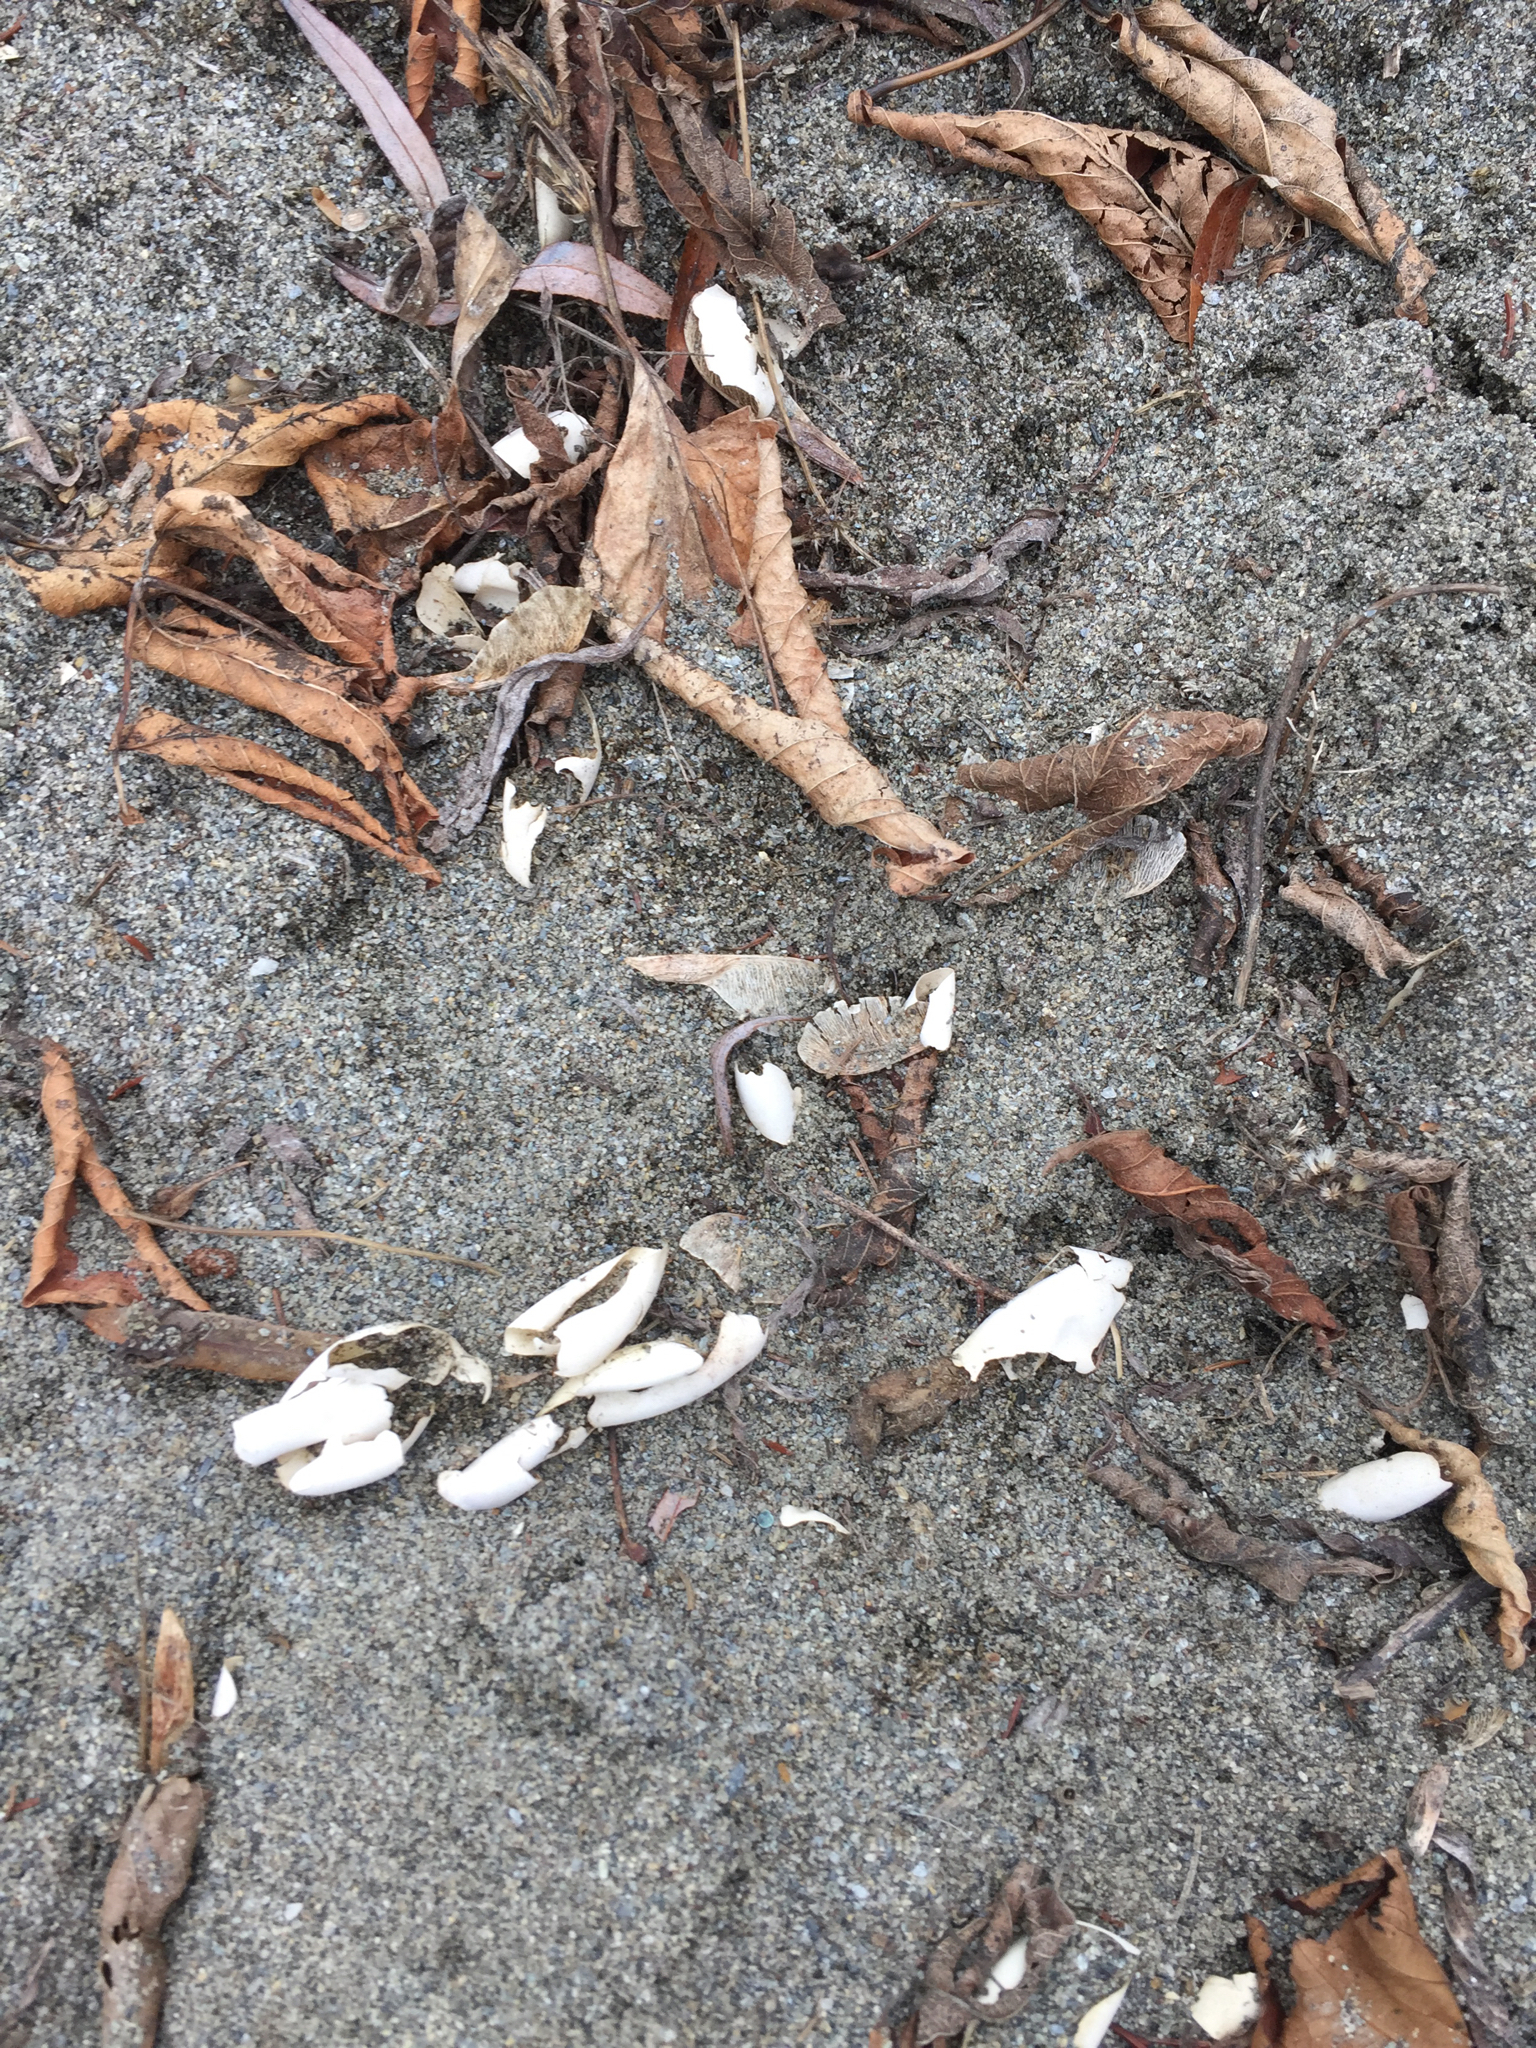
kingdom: Animalia
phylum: Chordata
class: Testudines
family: Chelydridae
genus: Chelydra
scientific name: Chelydra serpentina
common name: Common snapping turtle
